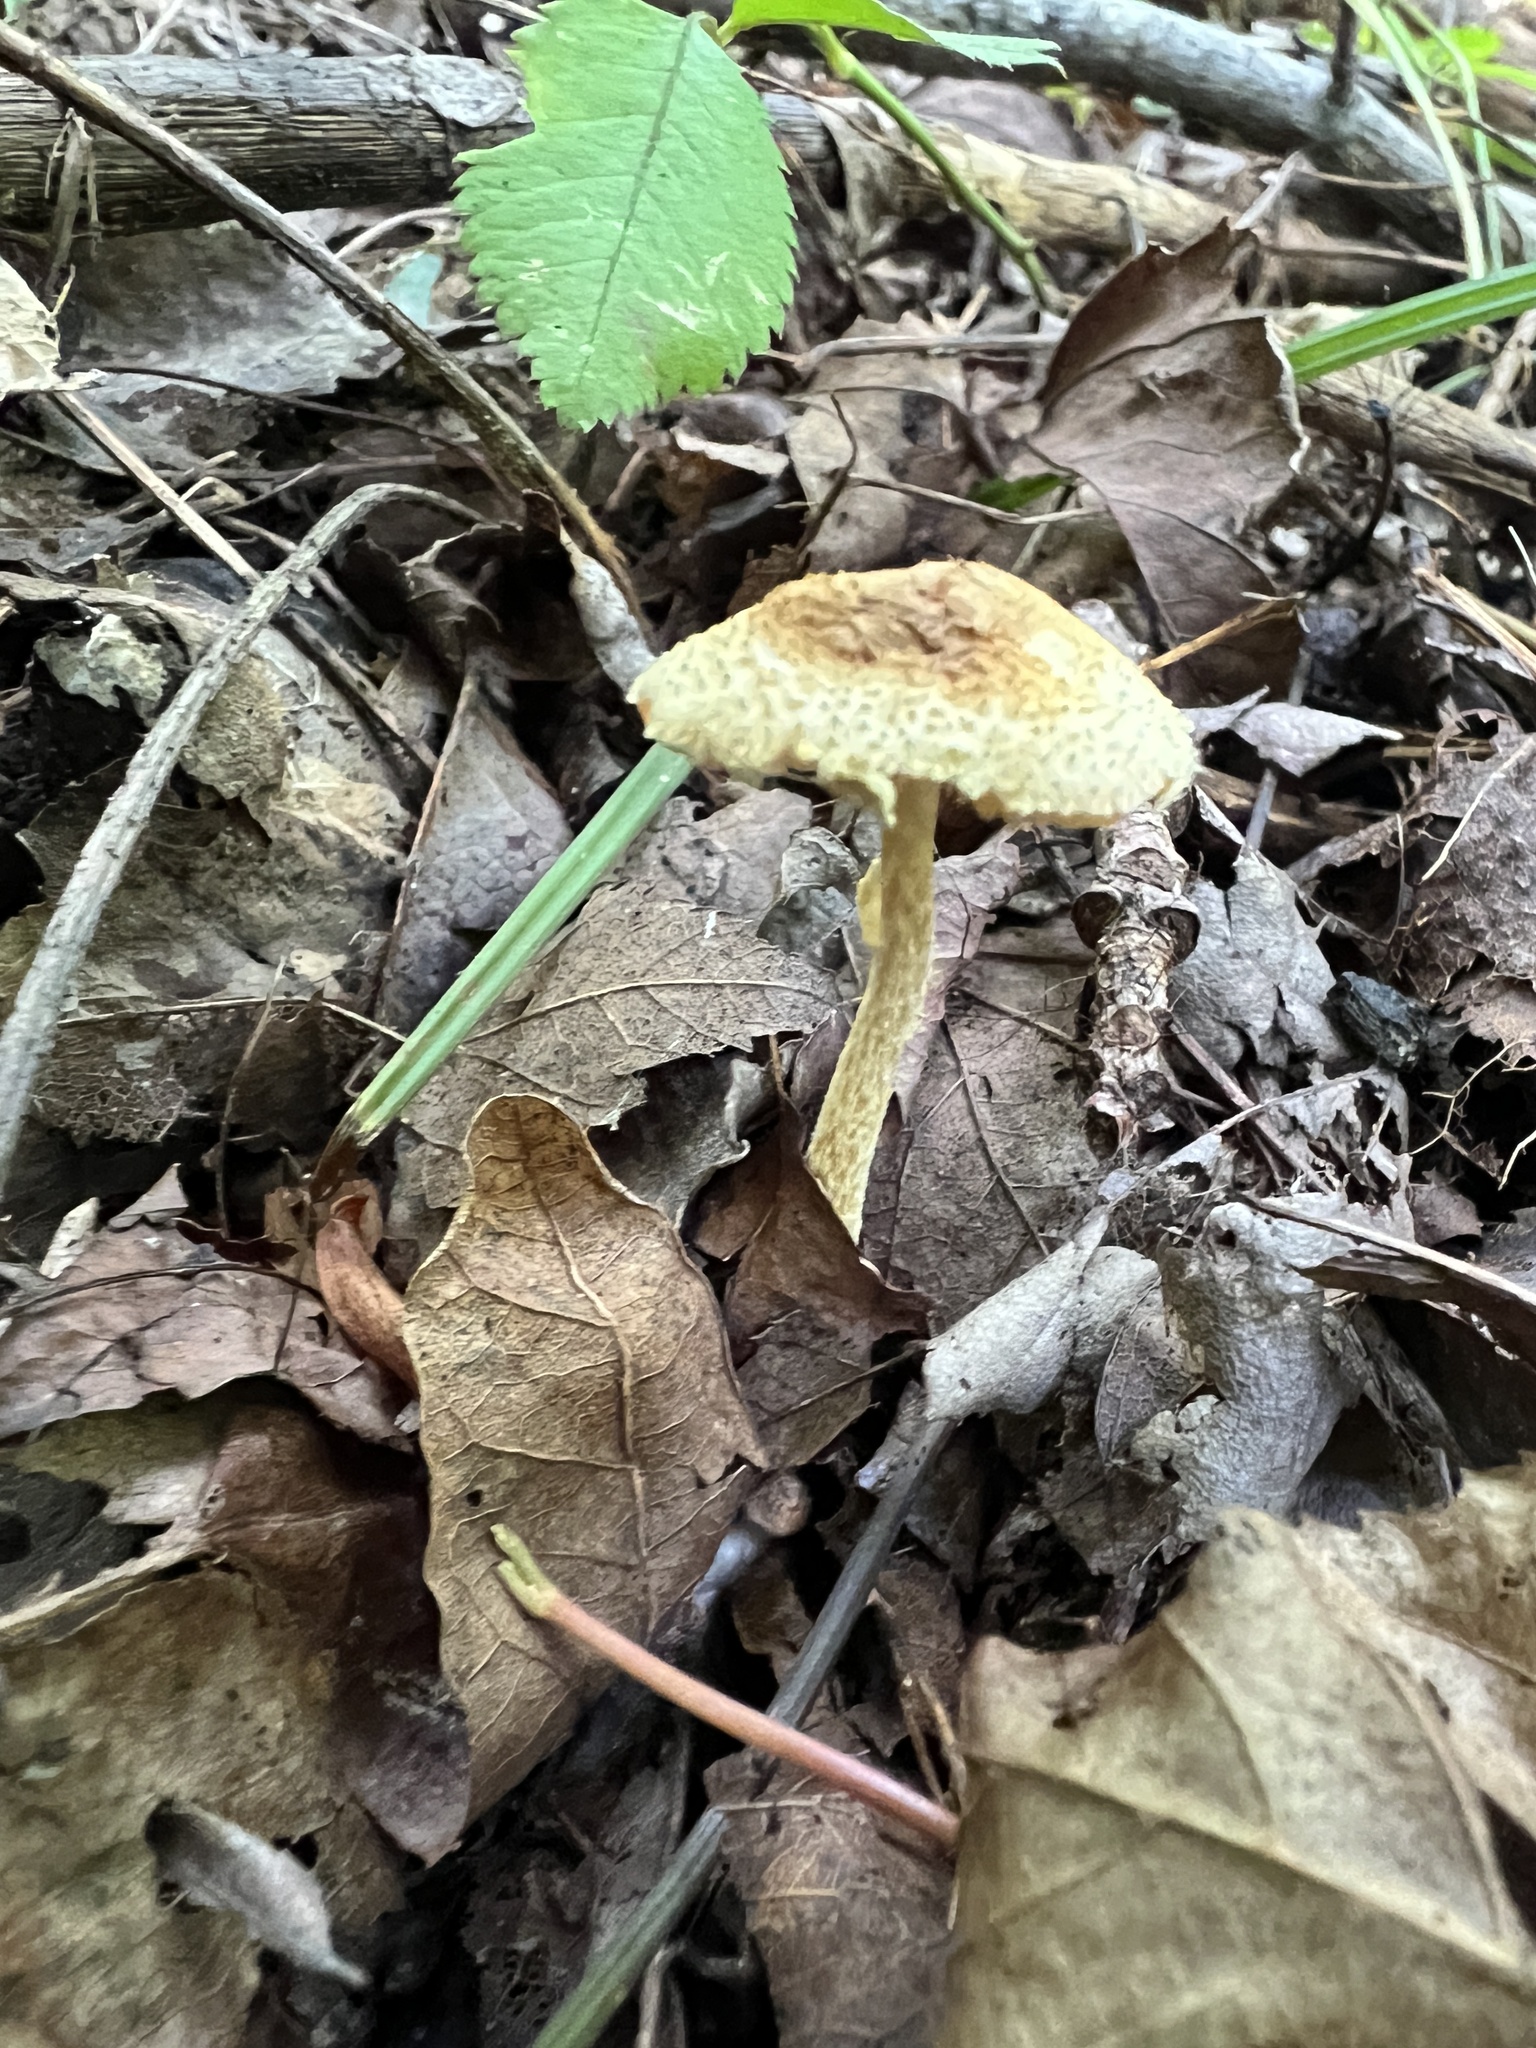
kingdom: Fungi
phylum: Basidiomycota
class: Agaricomycetes
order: Agaricales
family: Agaricaceae
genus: Lepiota
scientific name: Lepiota maculans
